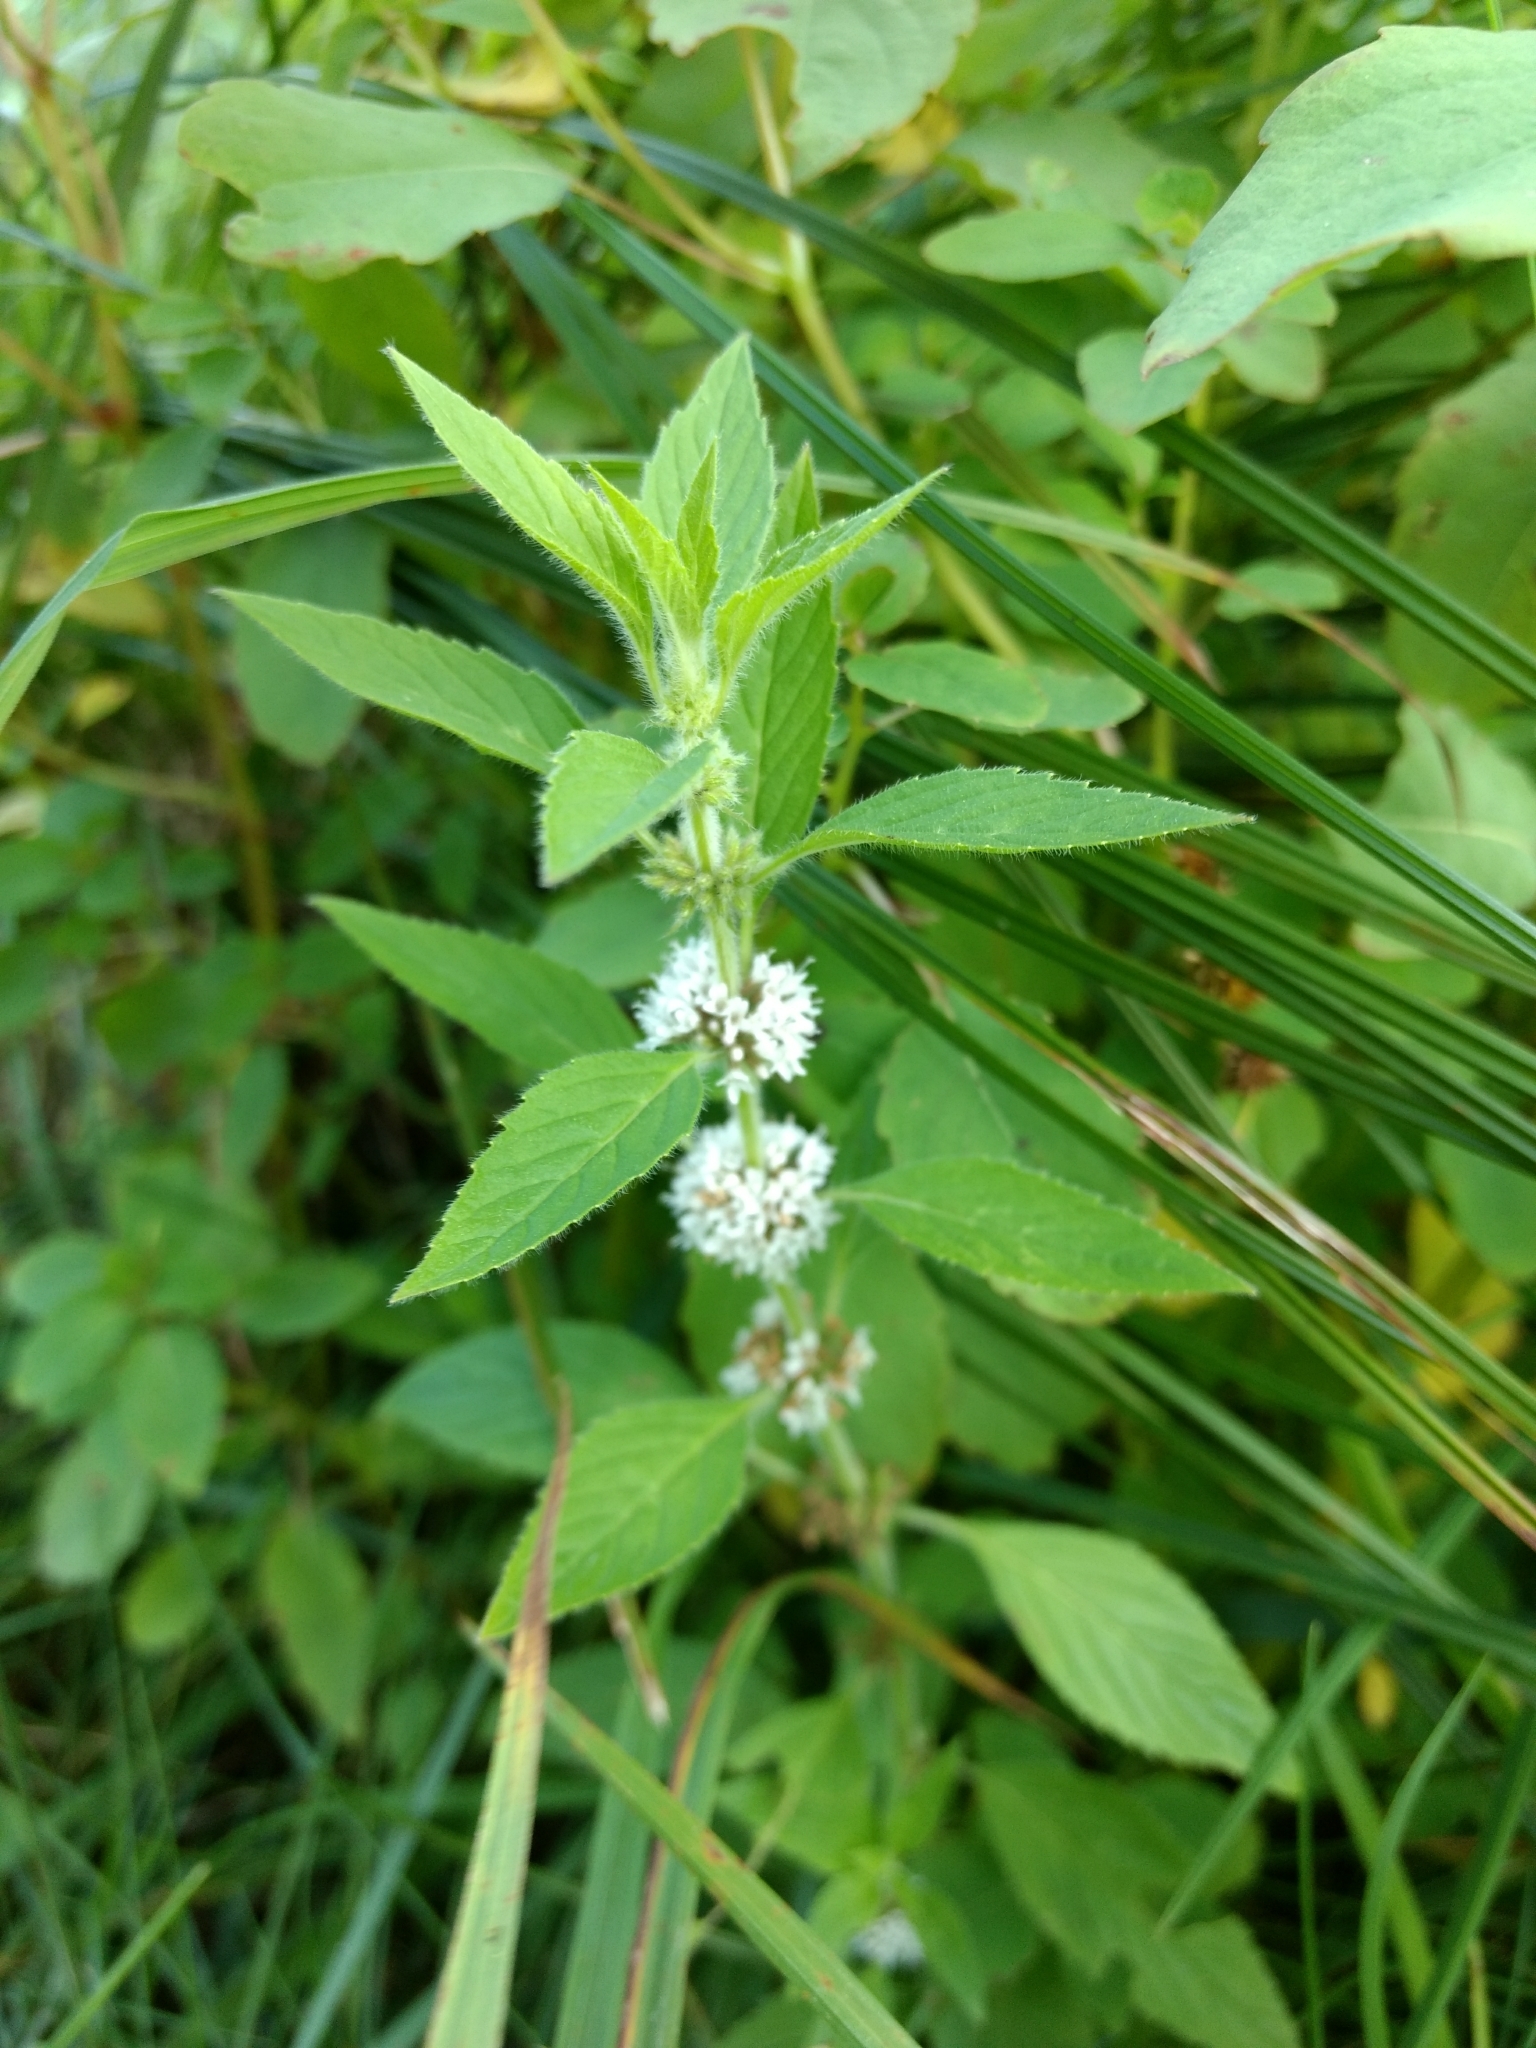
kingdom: Plantae
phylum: Tracheophyta
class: Magnoliopsida
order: Lamiales
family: Lamiaceae
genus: Mentha
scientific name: Mentha canadensis
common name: American corn mint
